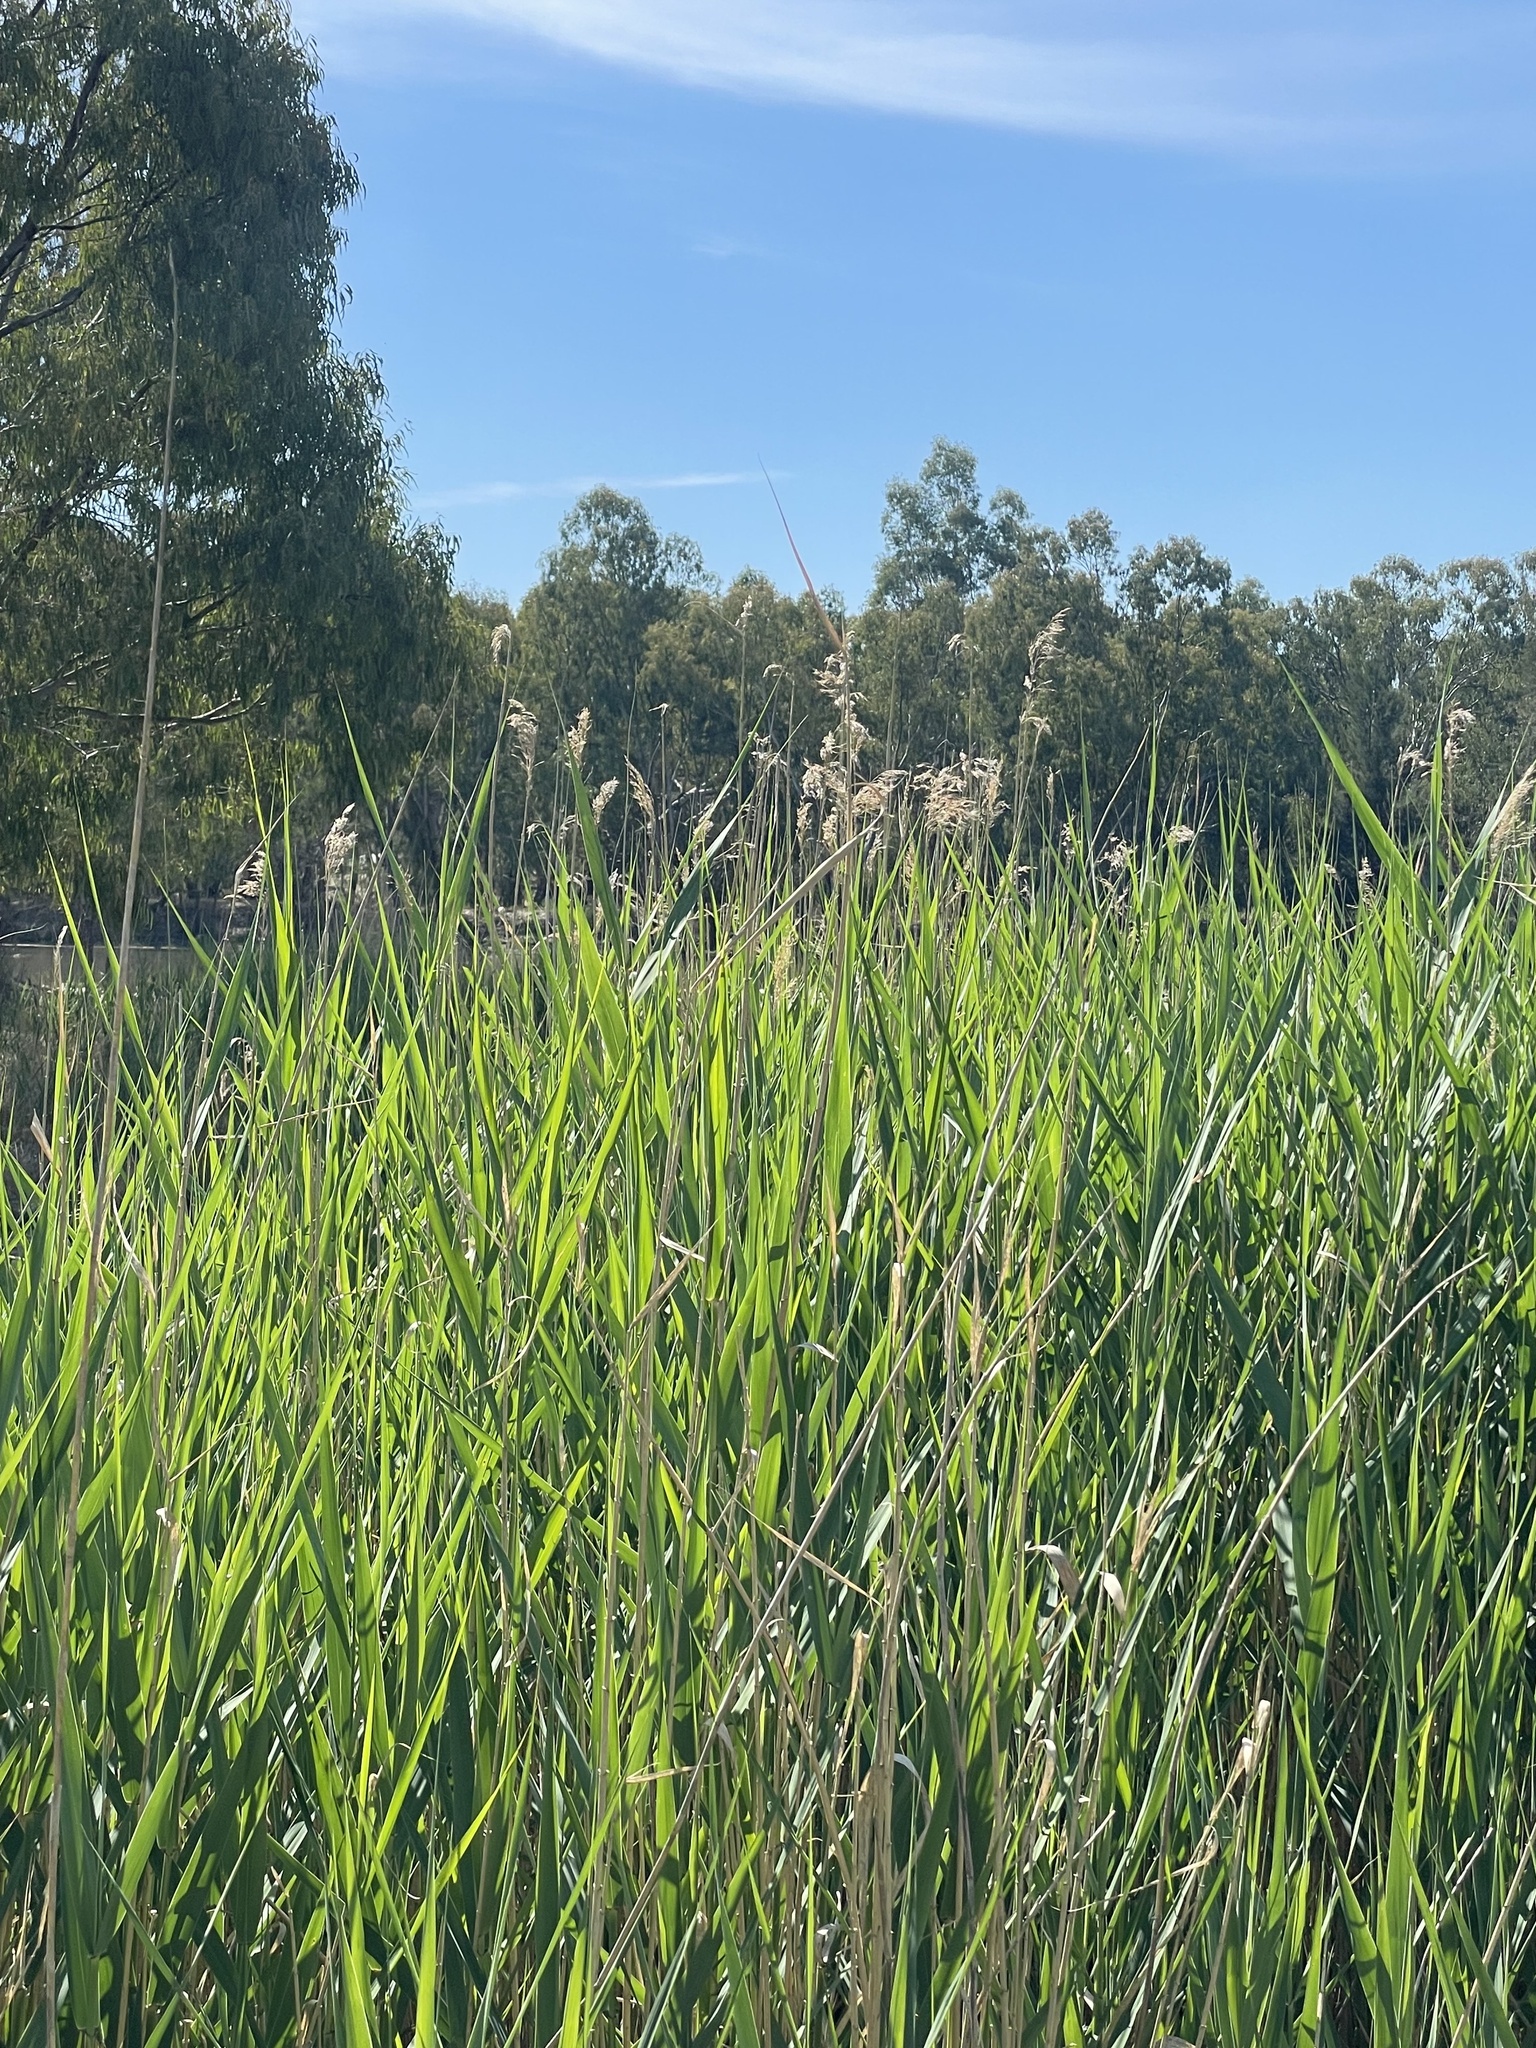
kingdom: Plantae
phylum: Tracheophyta
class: Liliopsida
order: Poales
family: Poaceae
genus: Phragmites
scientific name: Phragmites australis
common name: Common reed
